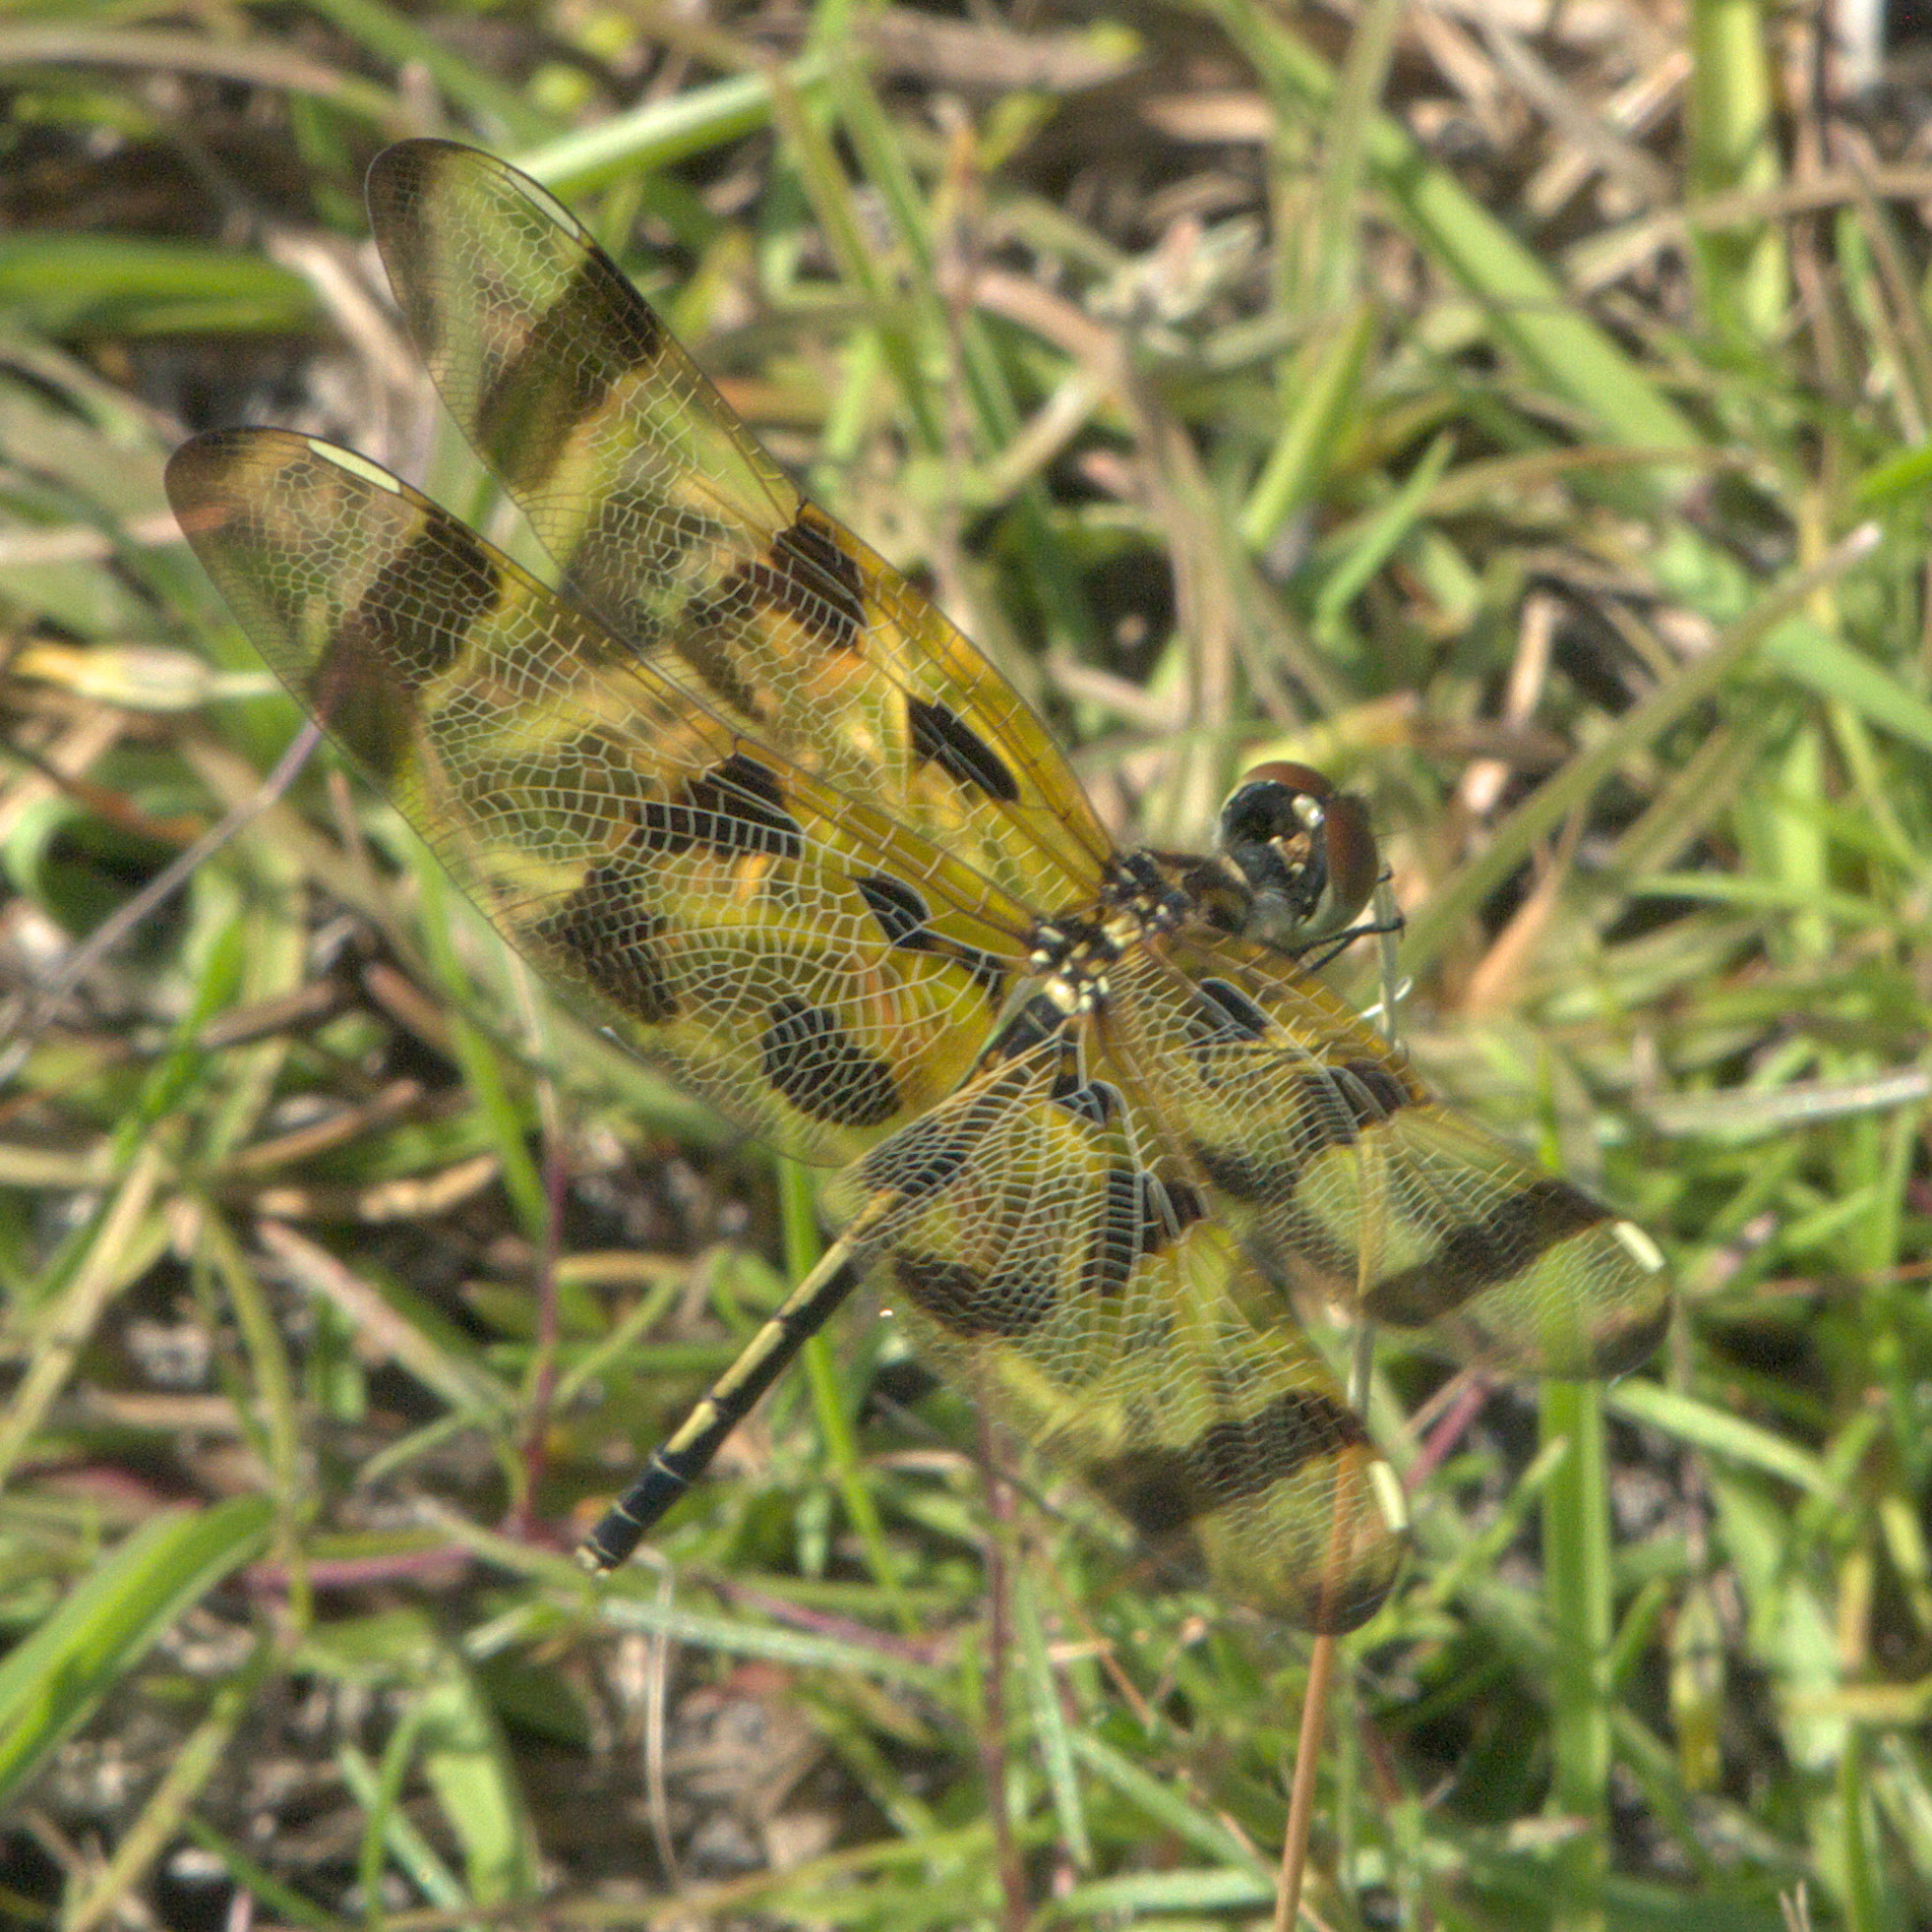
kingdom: Animalia
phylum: Arthropoda
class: Insecta
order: Odonata
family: Libellulidae
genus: Celithemis
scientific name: Celithemis eponina
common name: Halloween pennant
